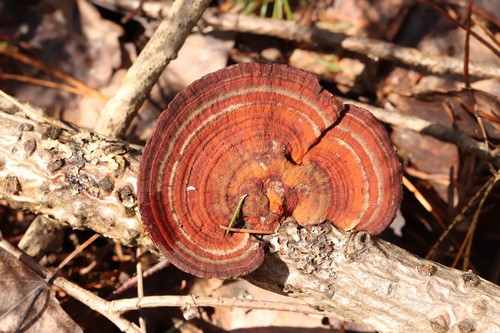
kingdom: Fungi
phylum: Basidiomycota
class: Agaricomycetes
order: Polyporales
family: Polyporaceae
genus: Daedaleopsis
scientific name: Daedaleopsis confragosa
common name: Blushing bracket
